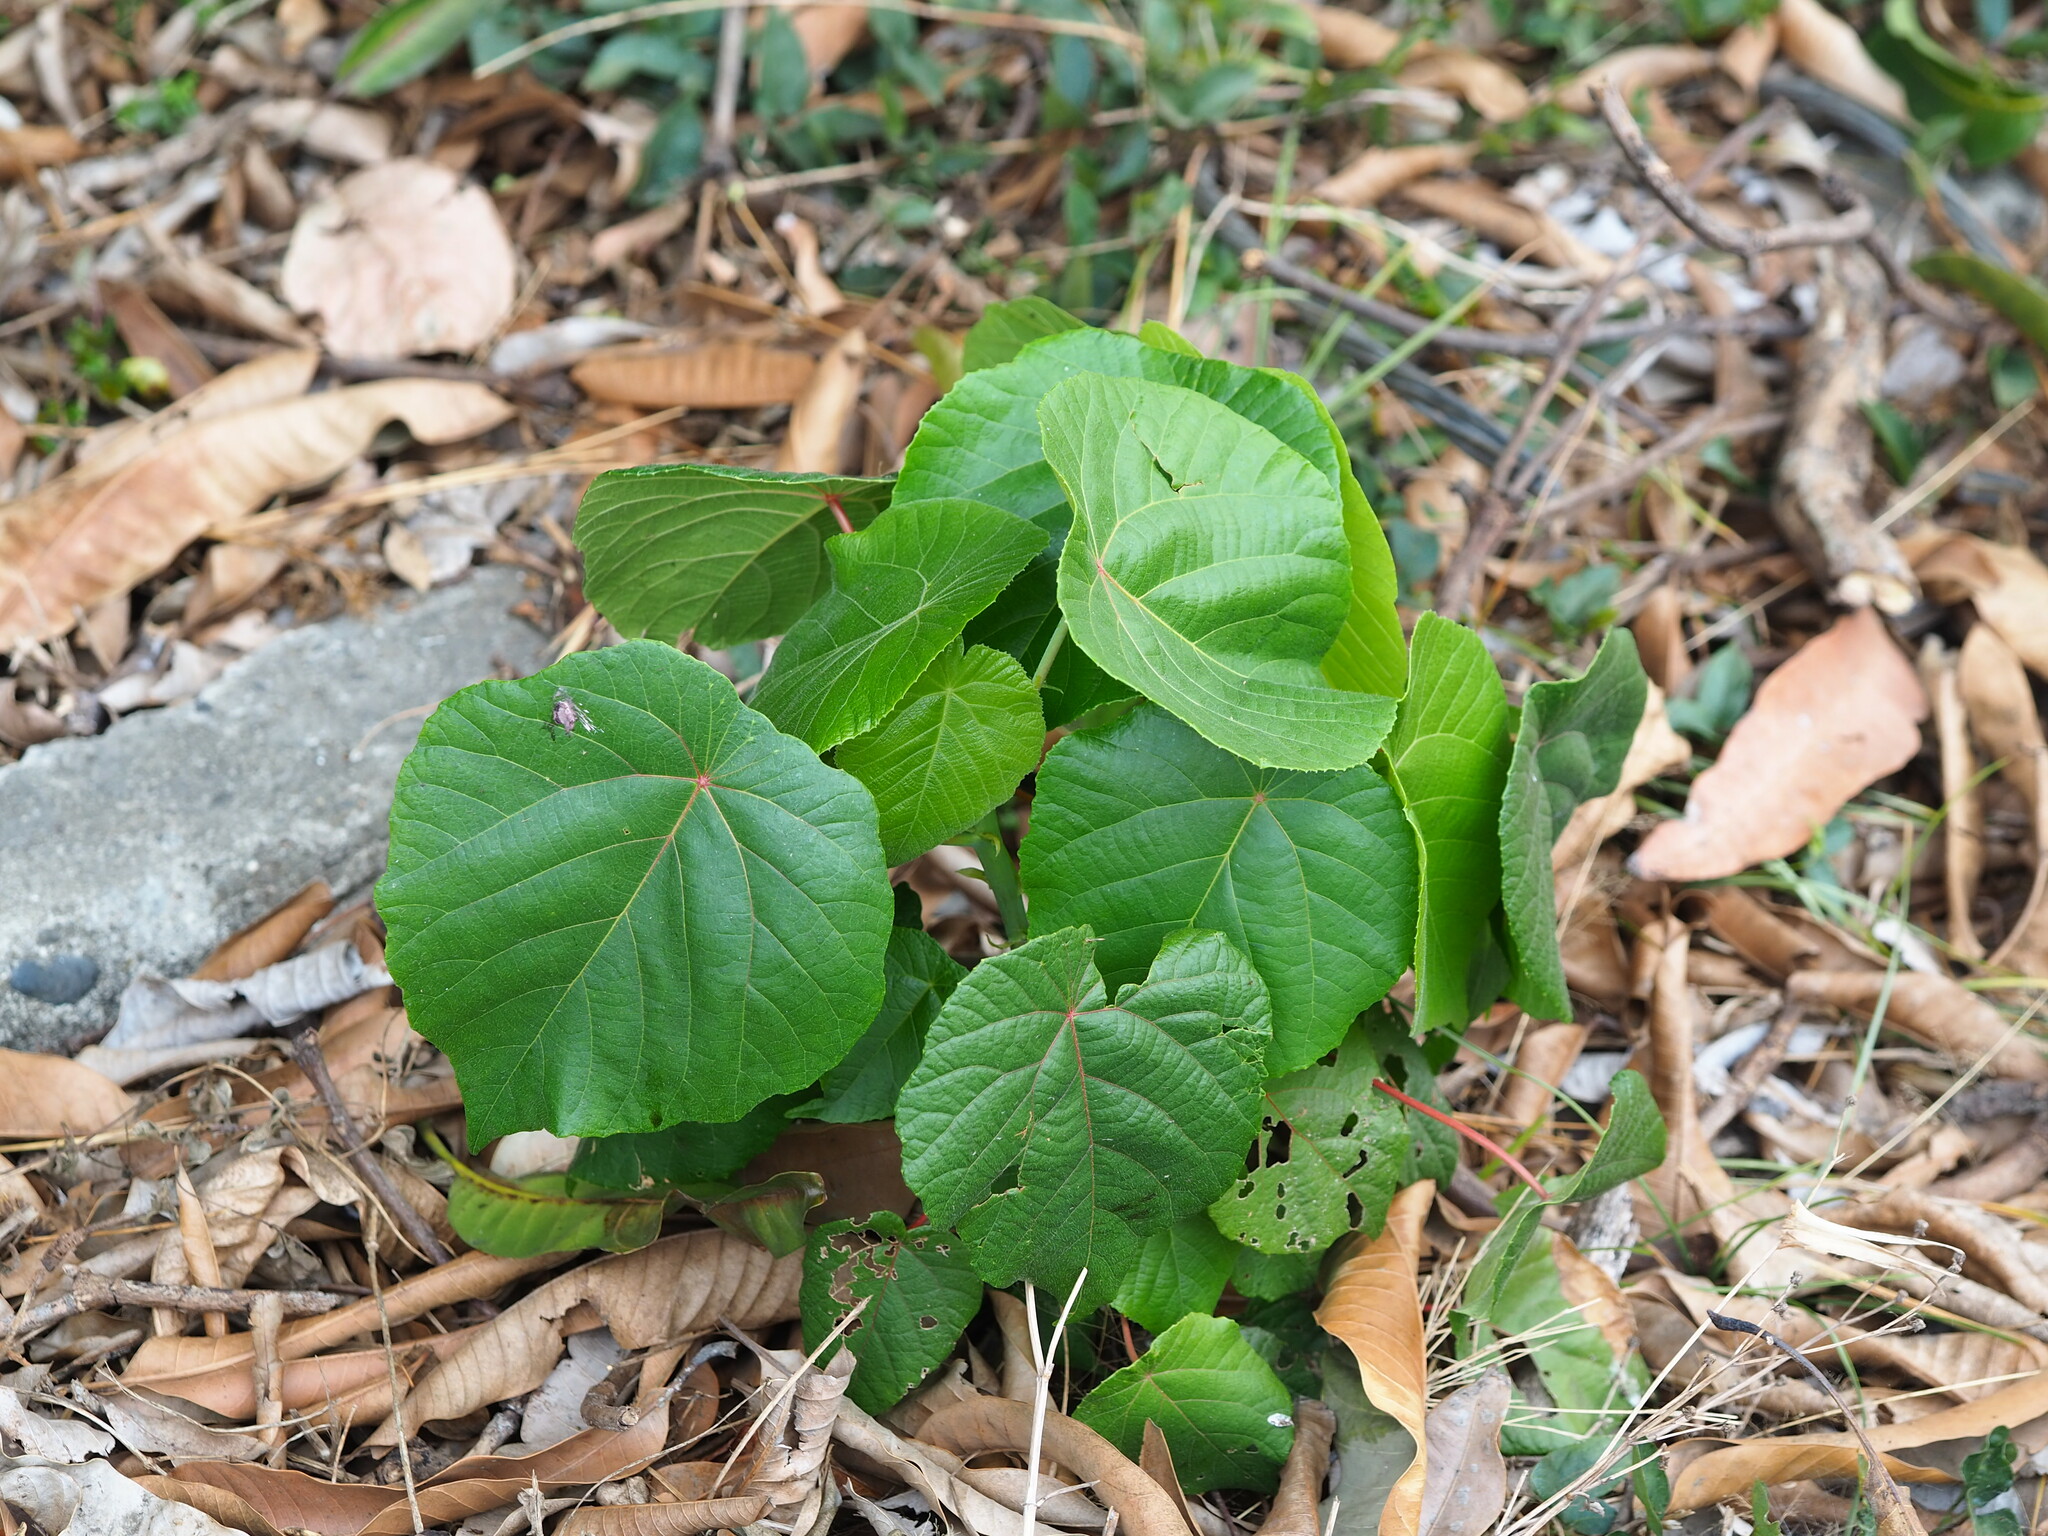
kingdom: Plantae
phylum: Tracheophyta
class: Magnoliopsida
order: Malpighiales
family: Euphorbiaceae
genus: Macaranga
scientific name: Macaranga tanarius
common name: Parasol leaf tree
